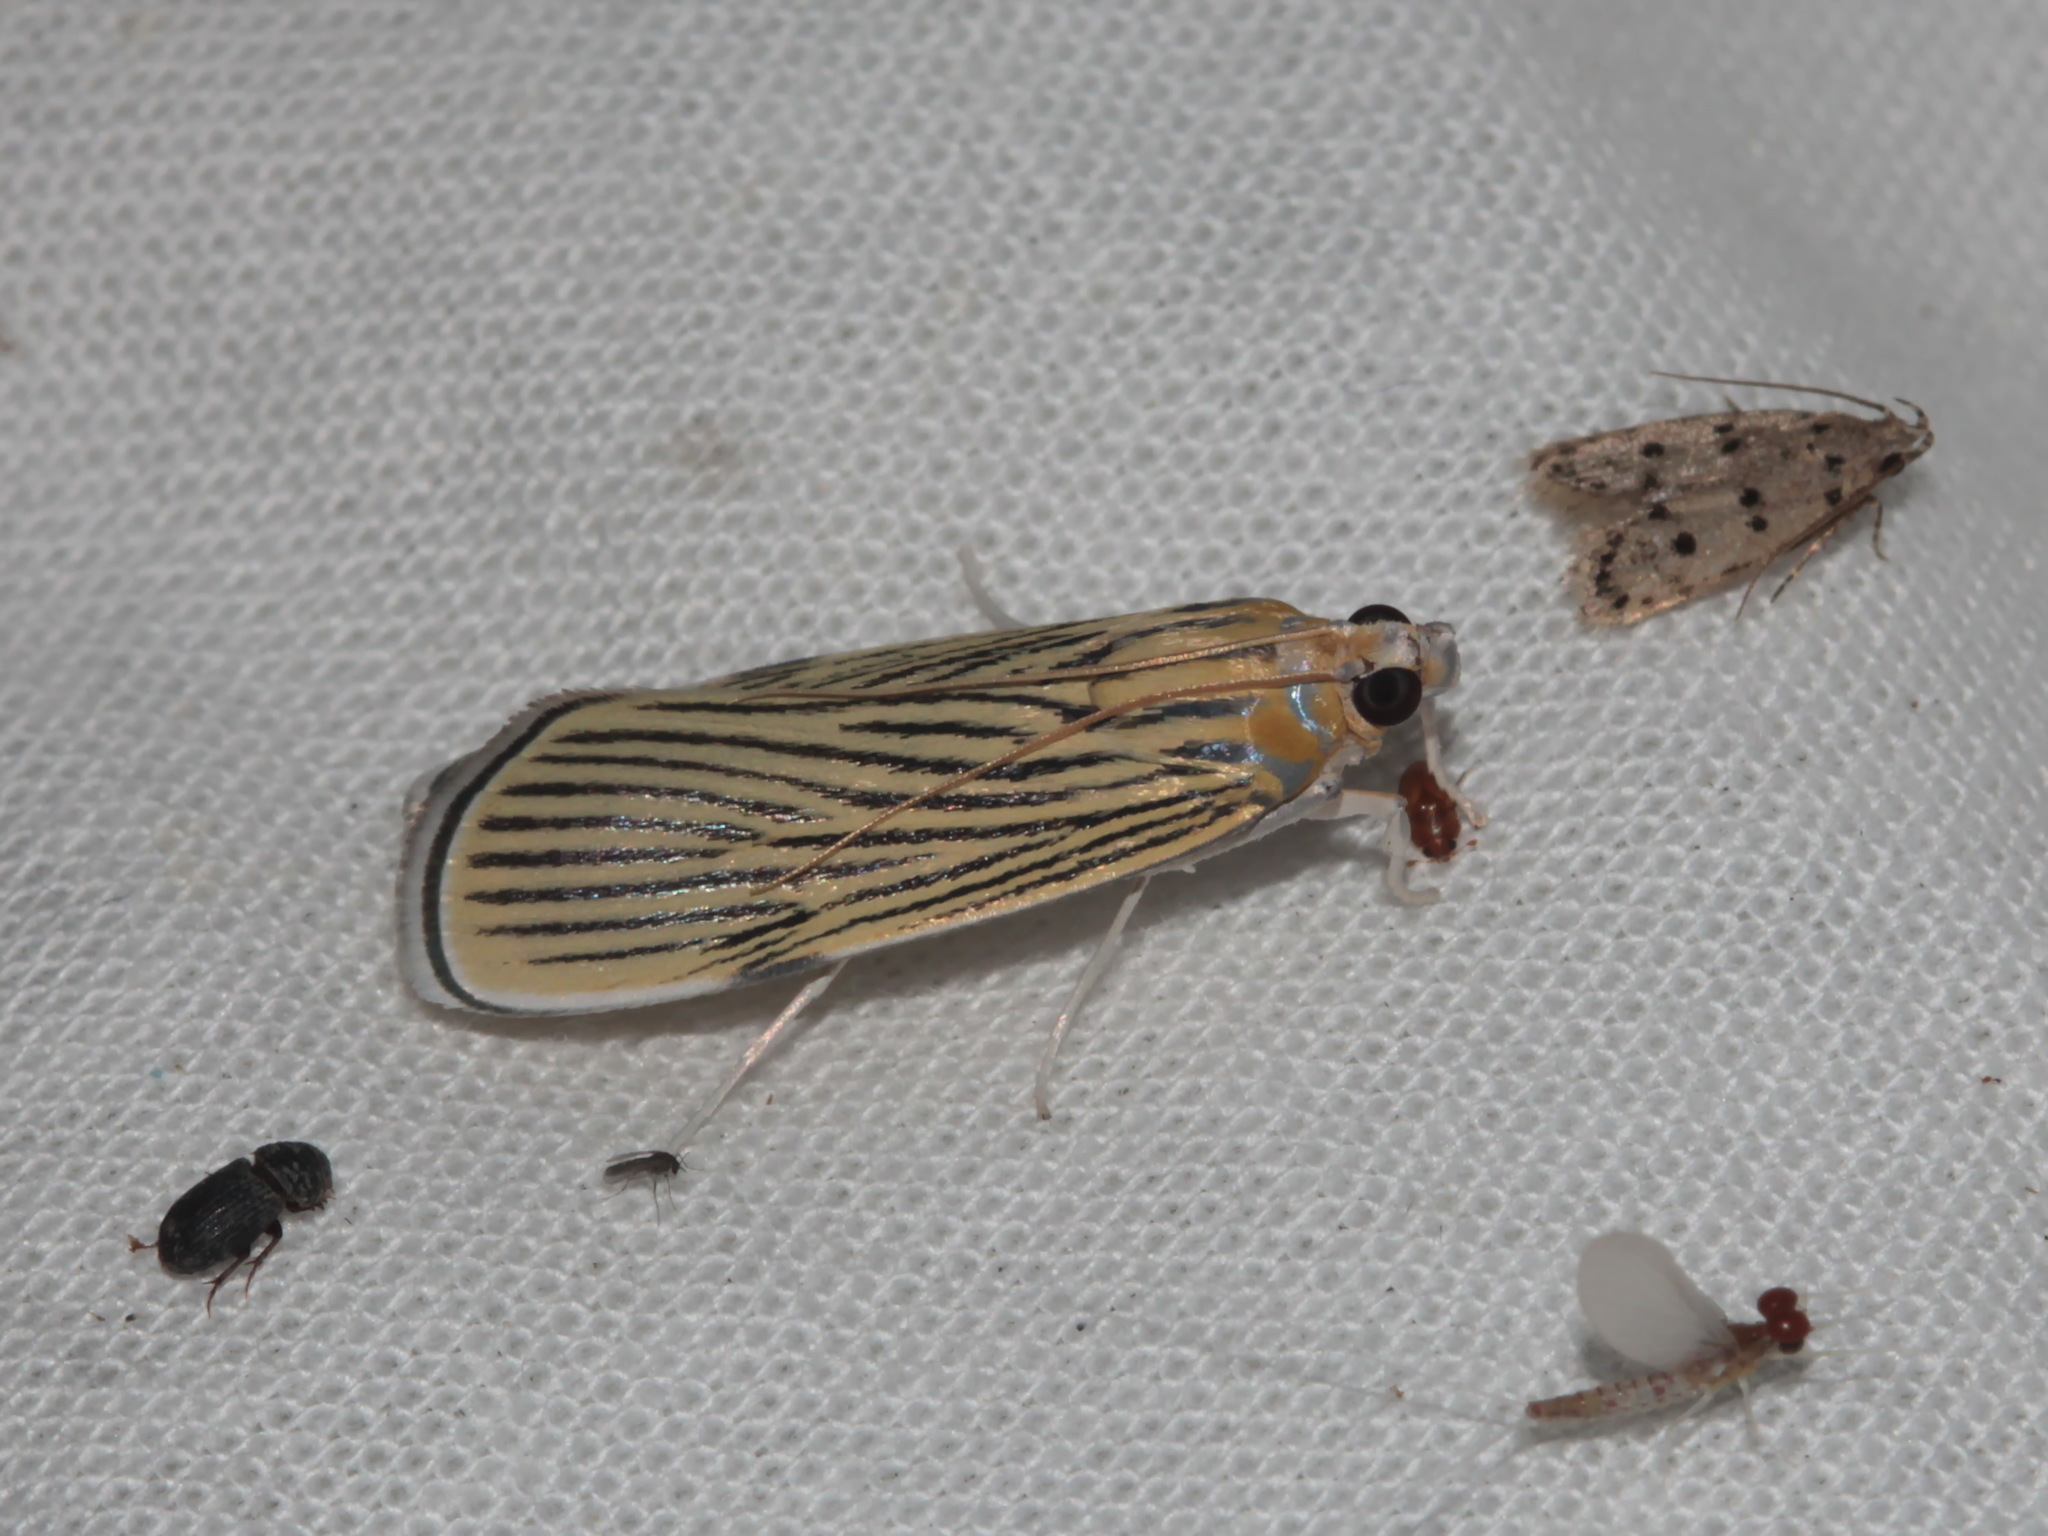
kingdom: Animalia
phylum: Arthropoda
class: Insecta
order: Lepidoptera
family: Crambidae
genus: Tyspanodes
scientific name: Tyspanodes linealis
